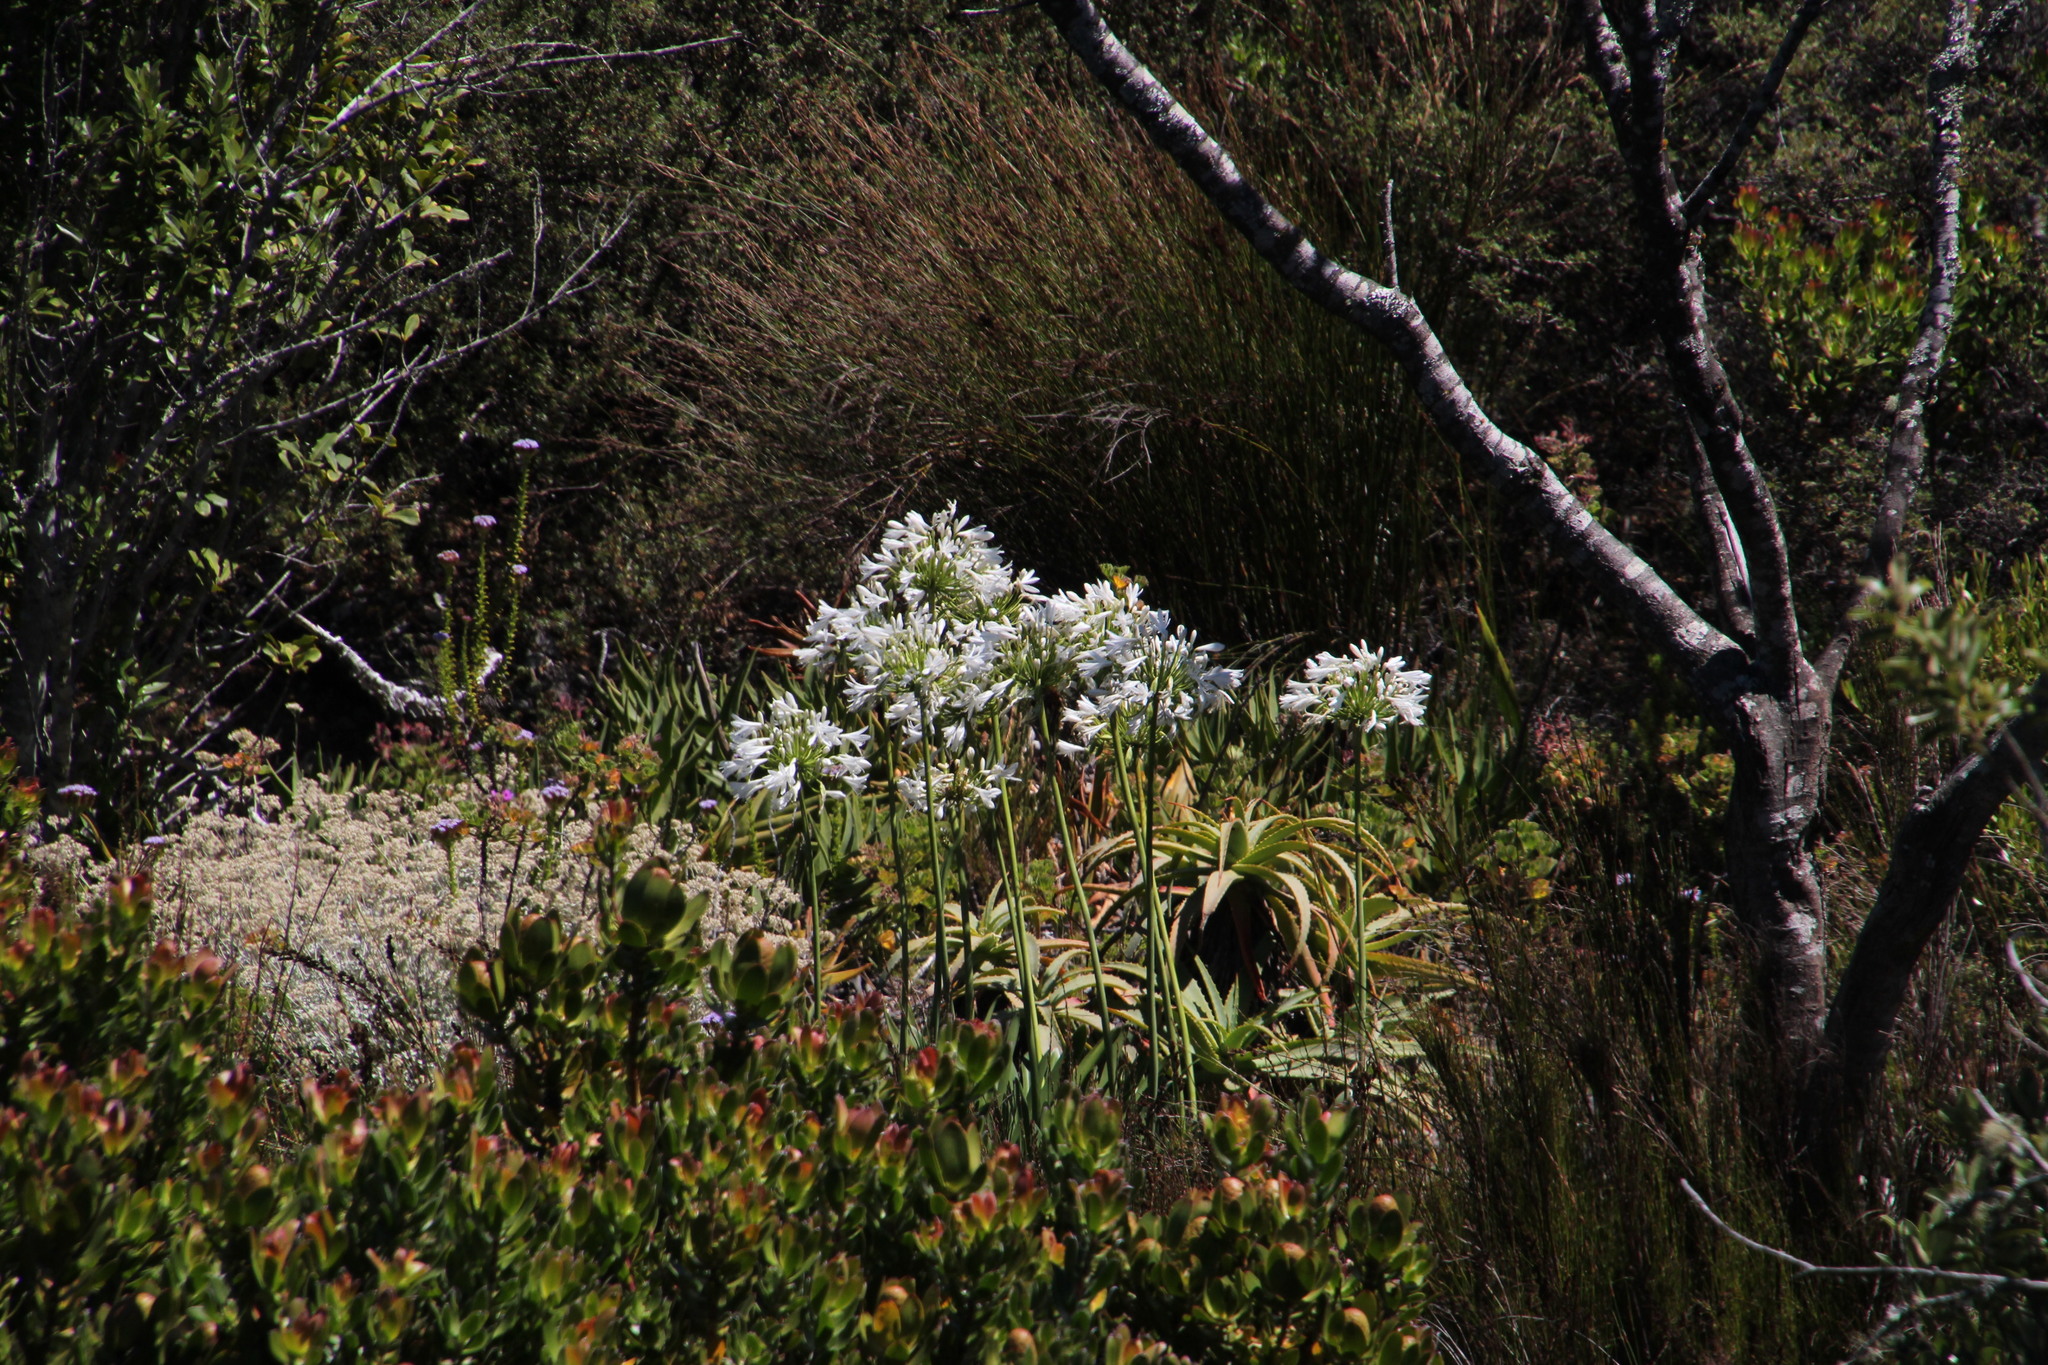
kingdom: Plantae
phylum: Tracheophyta
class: Liliopsida
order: Asparagales
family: Amaryllidaceae
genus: Agapanthus
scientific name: Agapanthus praecox
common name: African-lily
